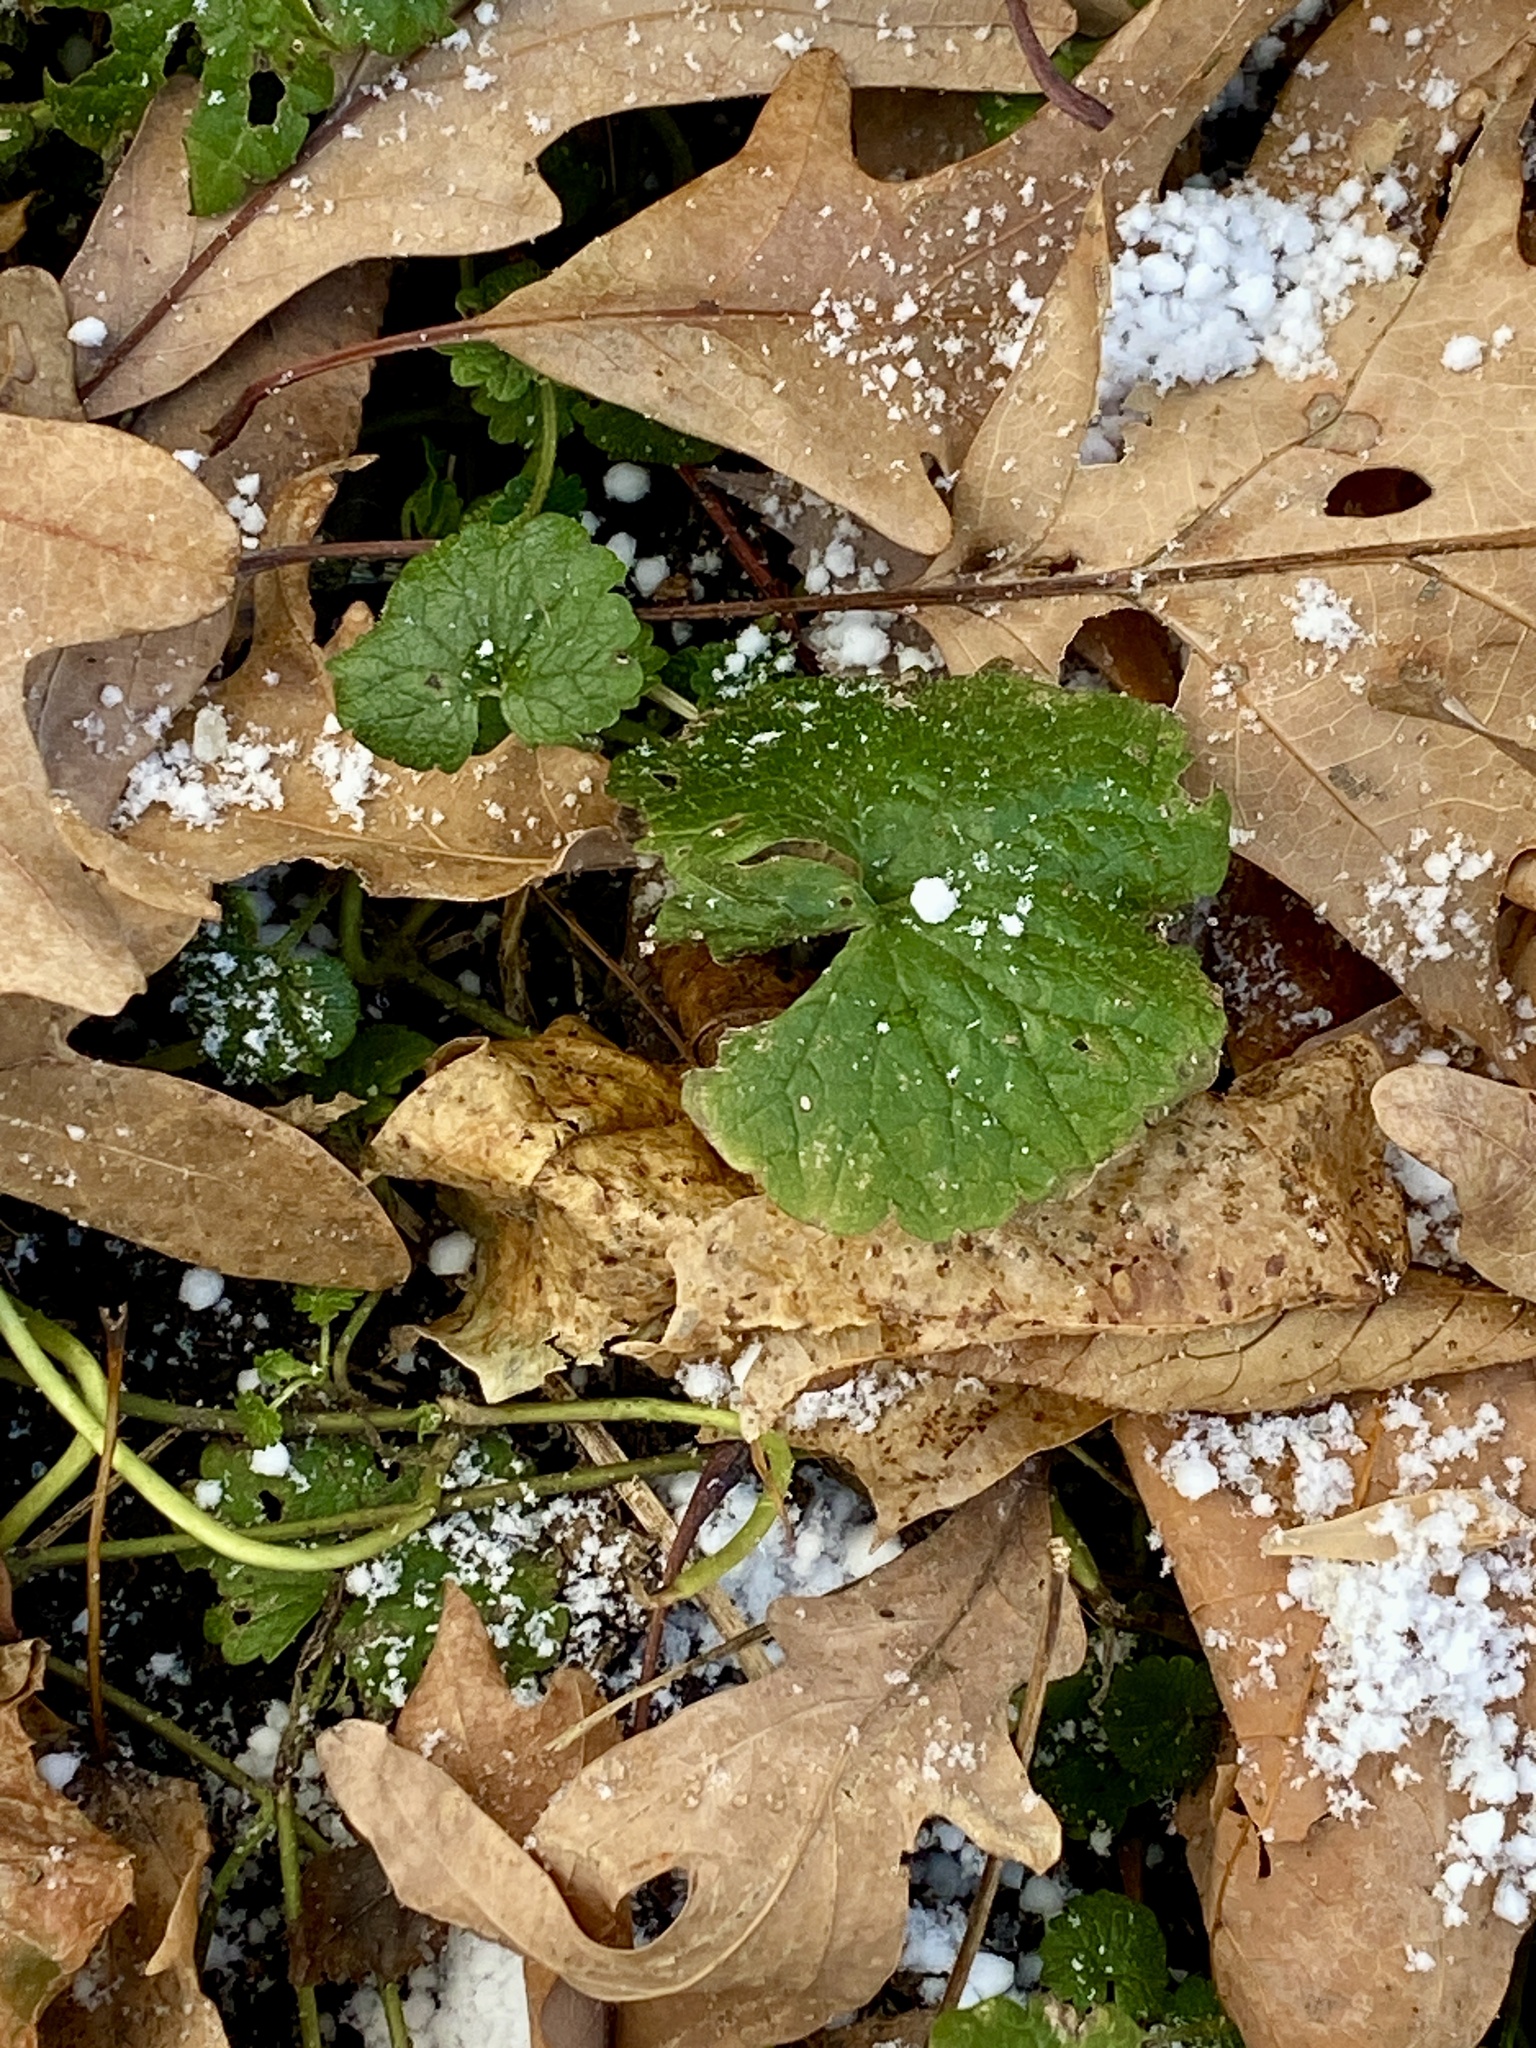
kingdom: Plantae
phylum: Tracheophyta
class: Magnoliopsida
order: Lamiales
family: Lamiaceae
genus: Glechoma
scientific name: Glechoma hederacea
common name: Ground ivy
